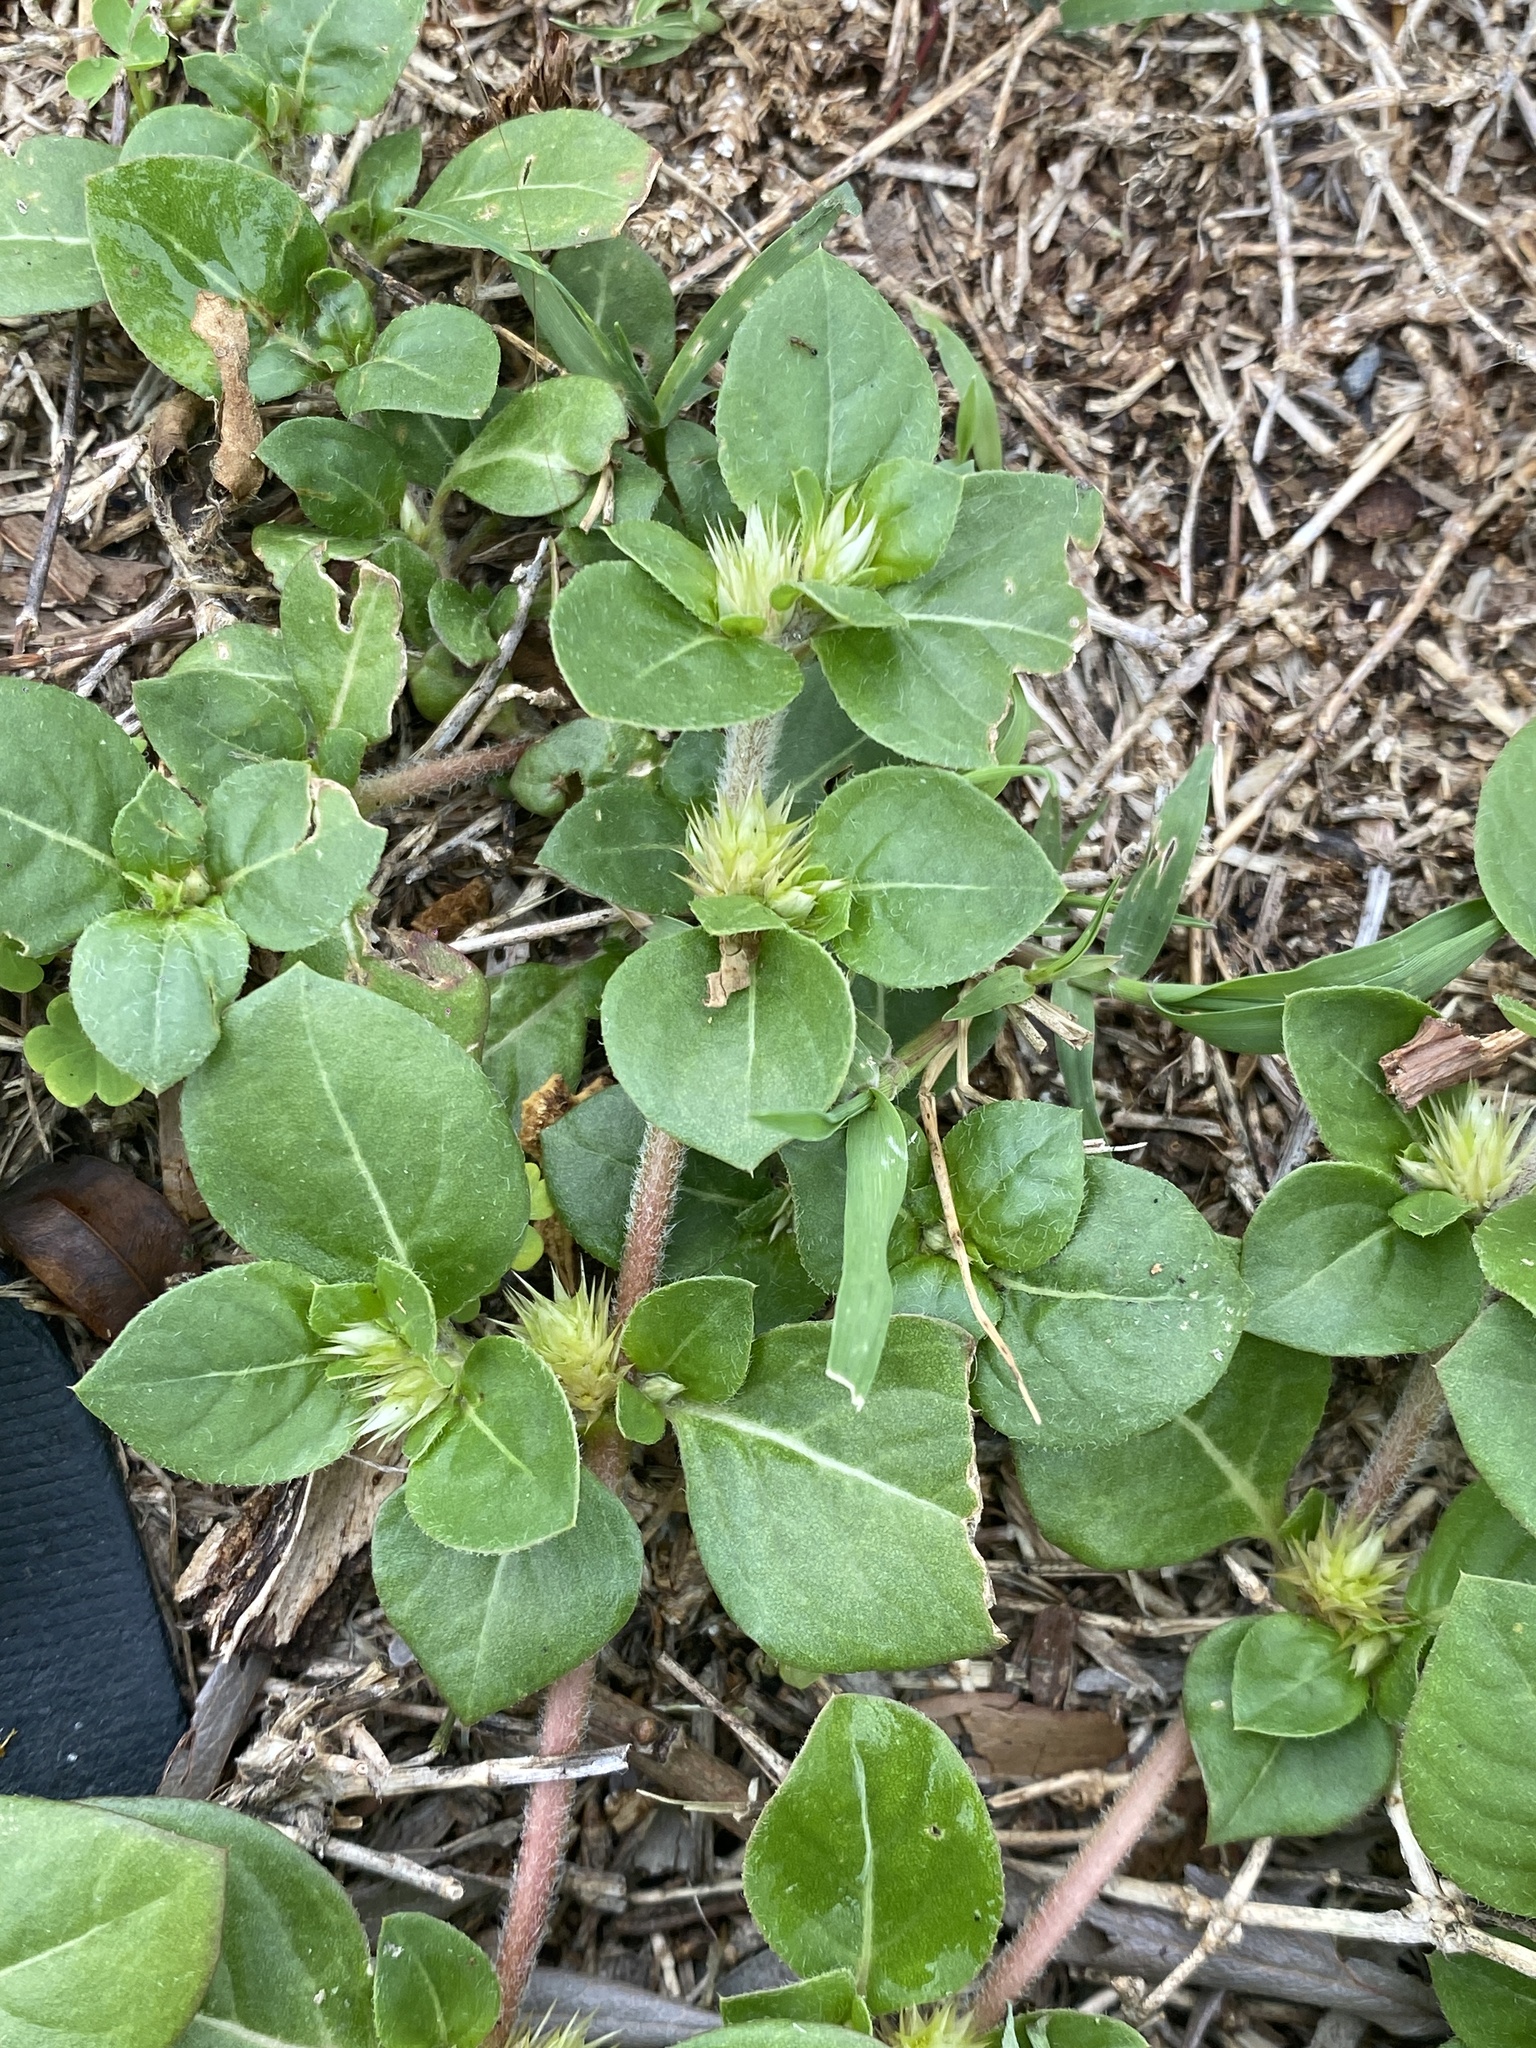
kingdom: Plantae
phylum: Tracheophyta
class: Magnoliopsida
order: Caryophyllales
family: Amaranthaceae
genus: Alternanthera
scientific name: Alternanthera pungens
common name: Khakiweed
